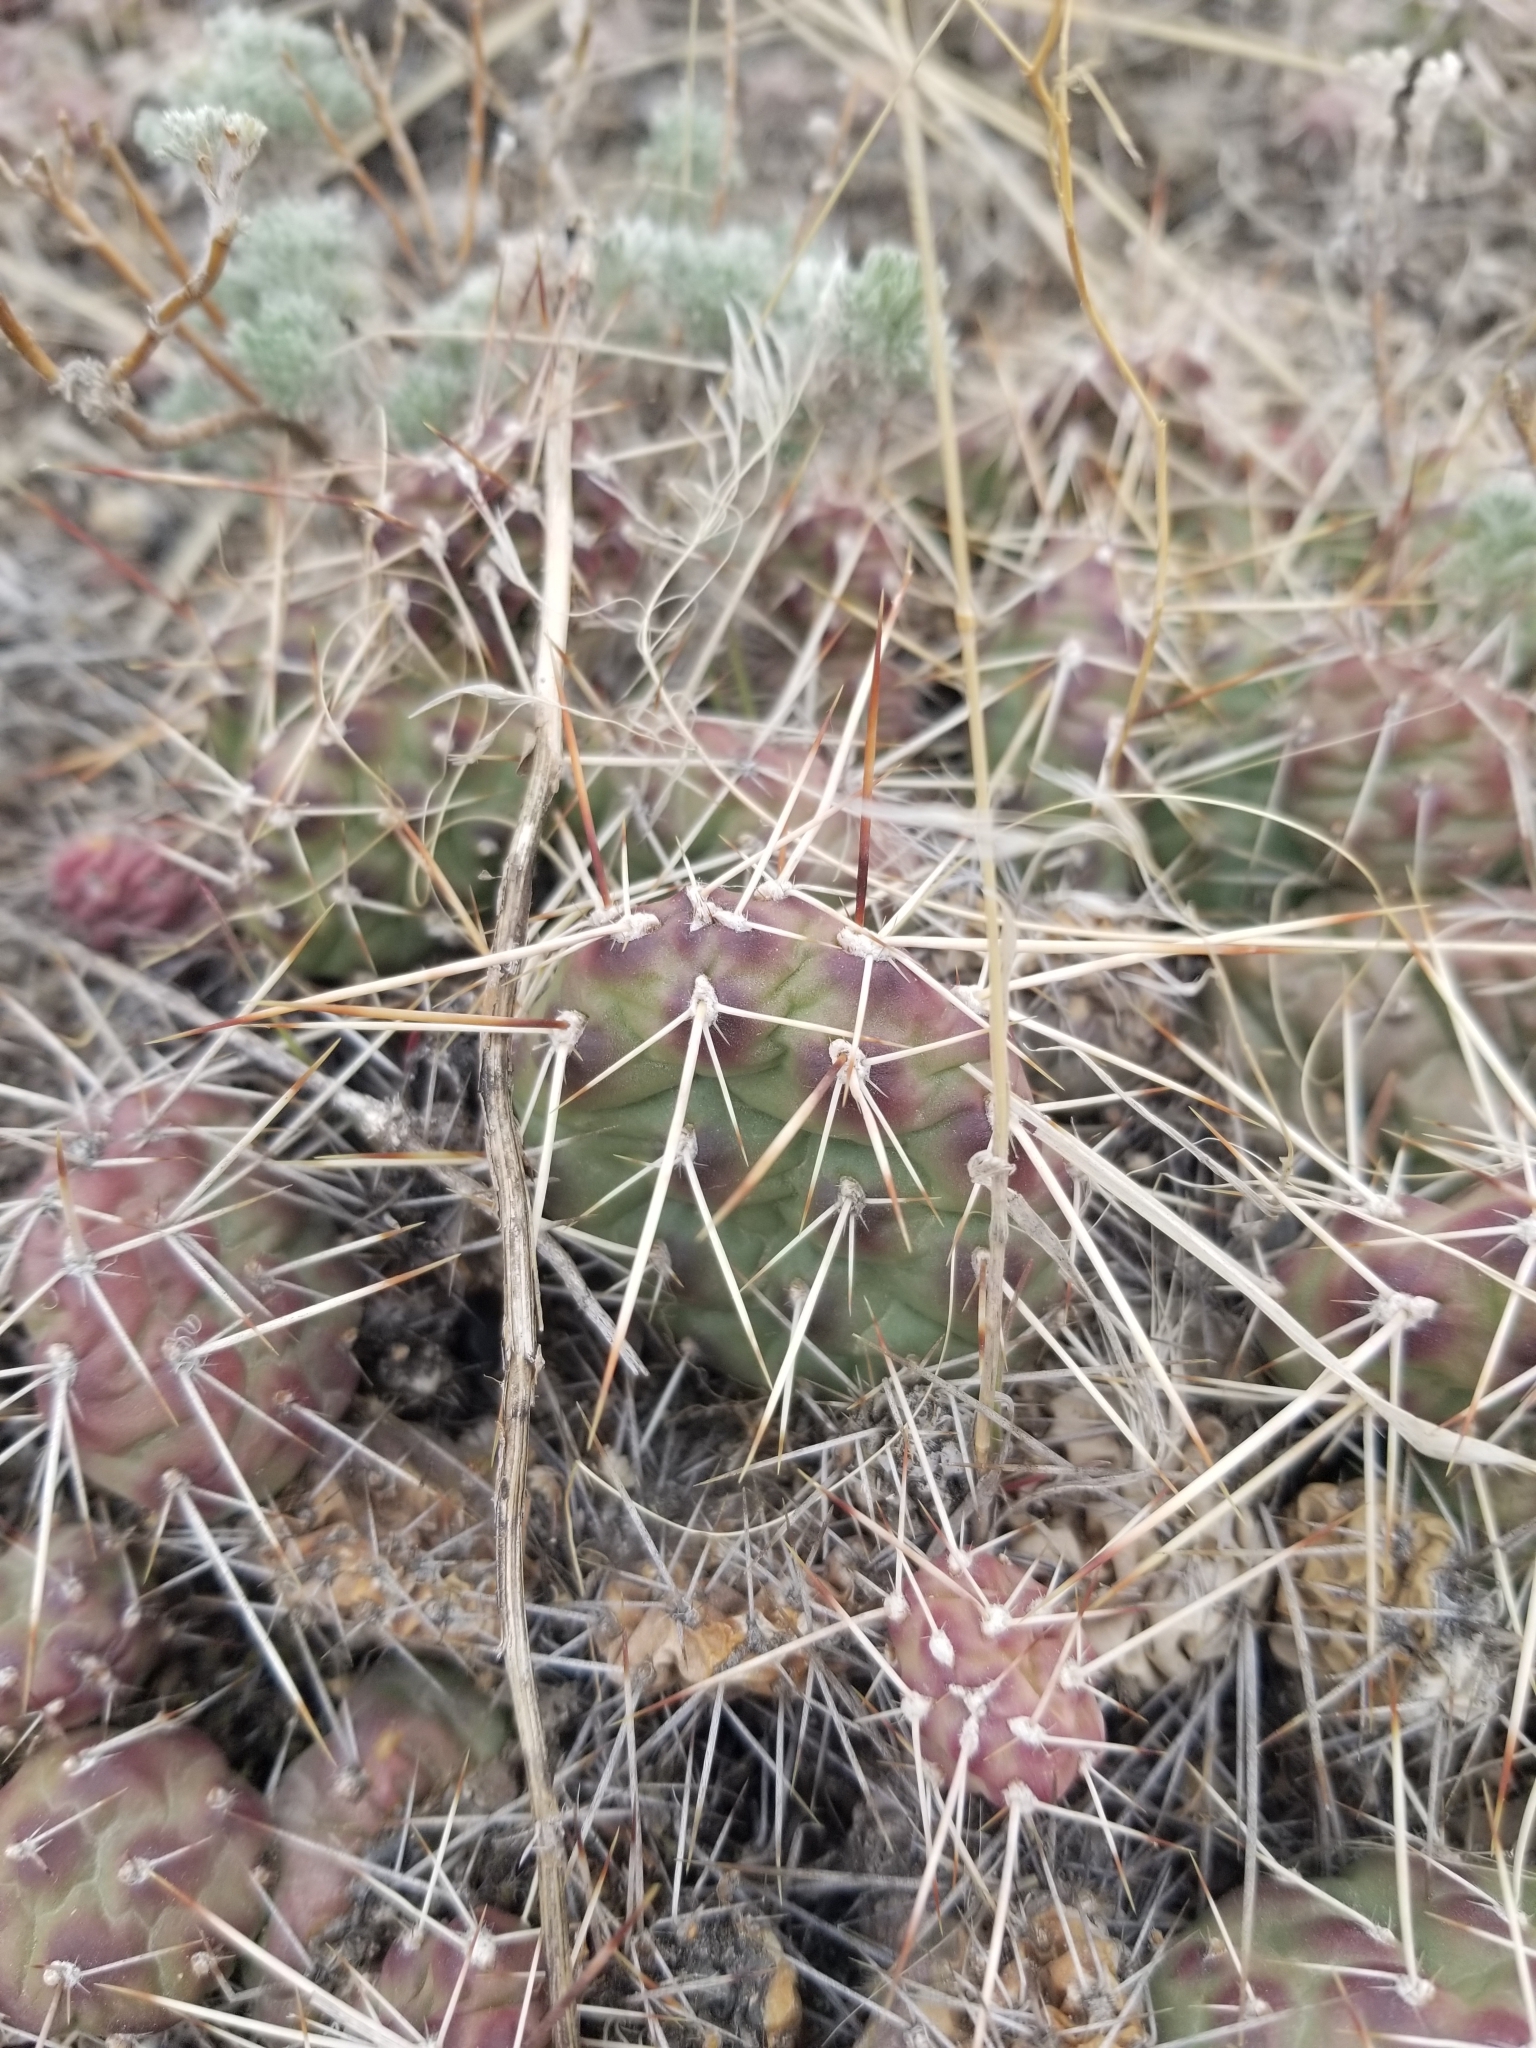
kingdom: Plantae
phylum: Tracheophyta
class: Magnoliopsida
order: Caryophyllales
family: Cactaceae
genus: Opuntia
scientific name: Opuntia fragilis
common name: Brittle cactus
